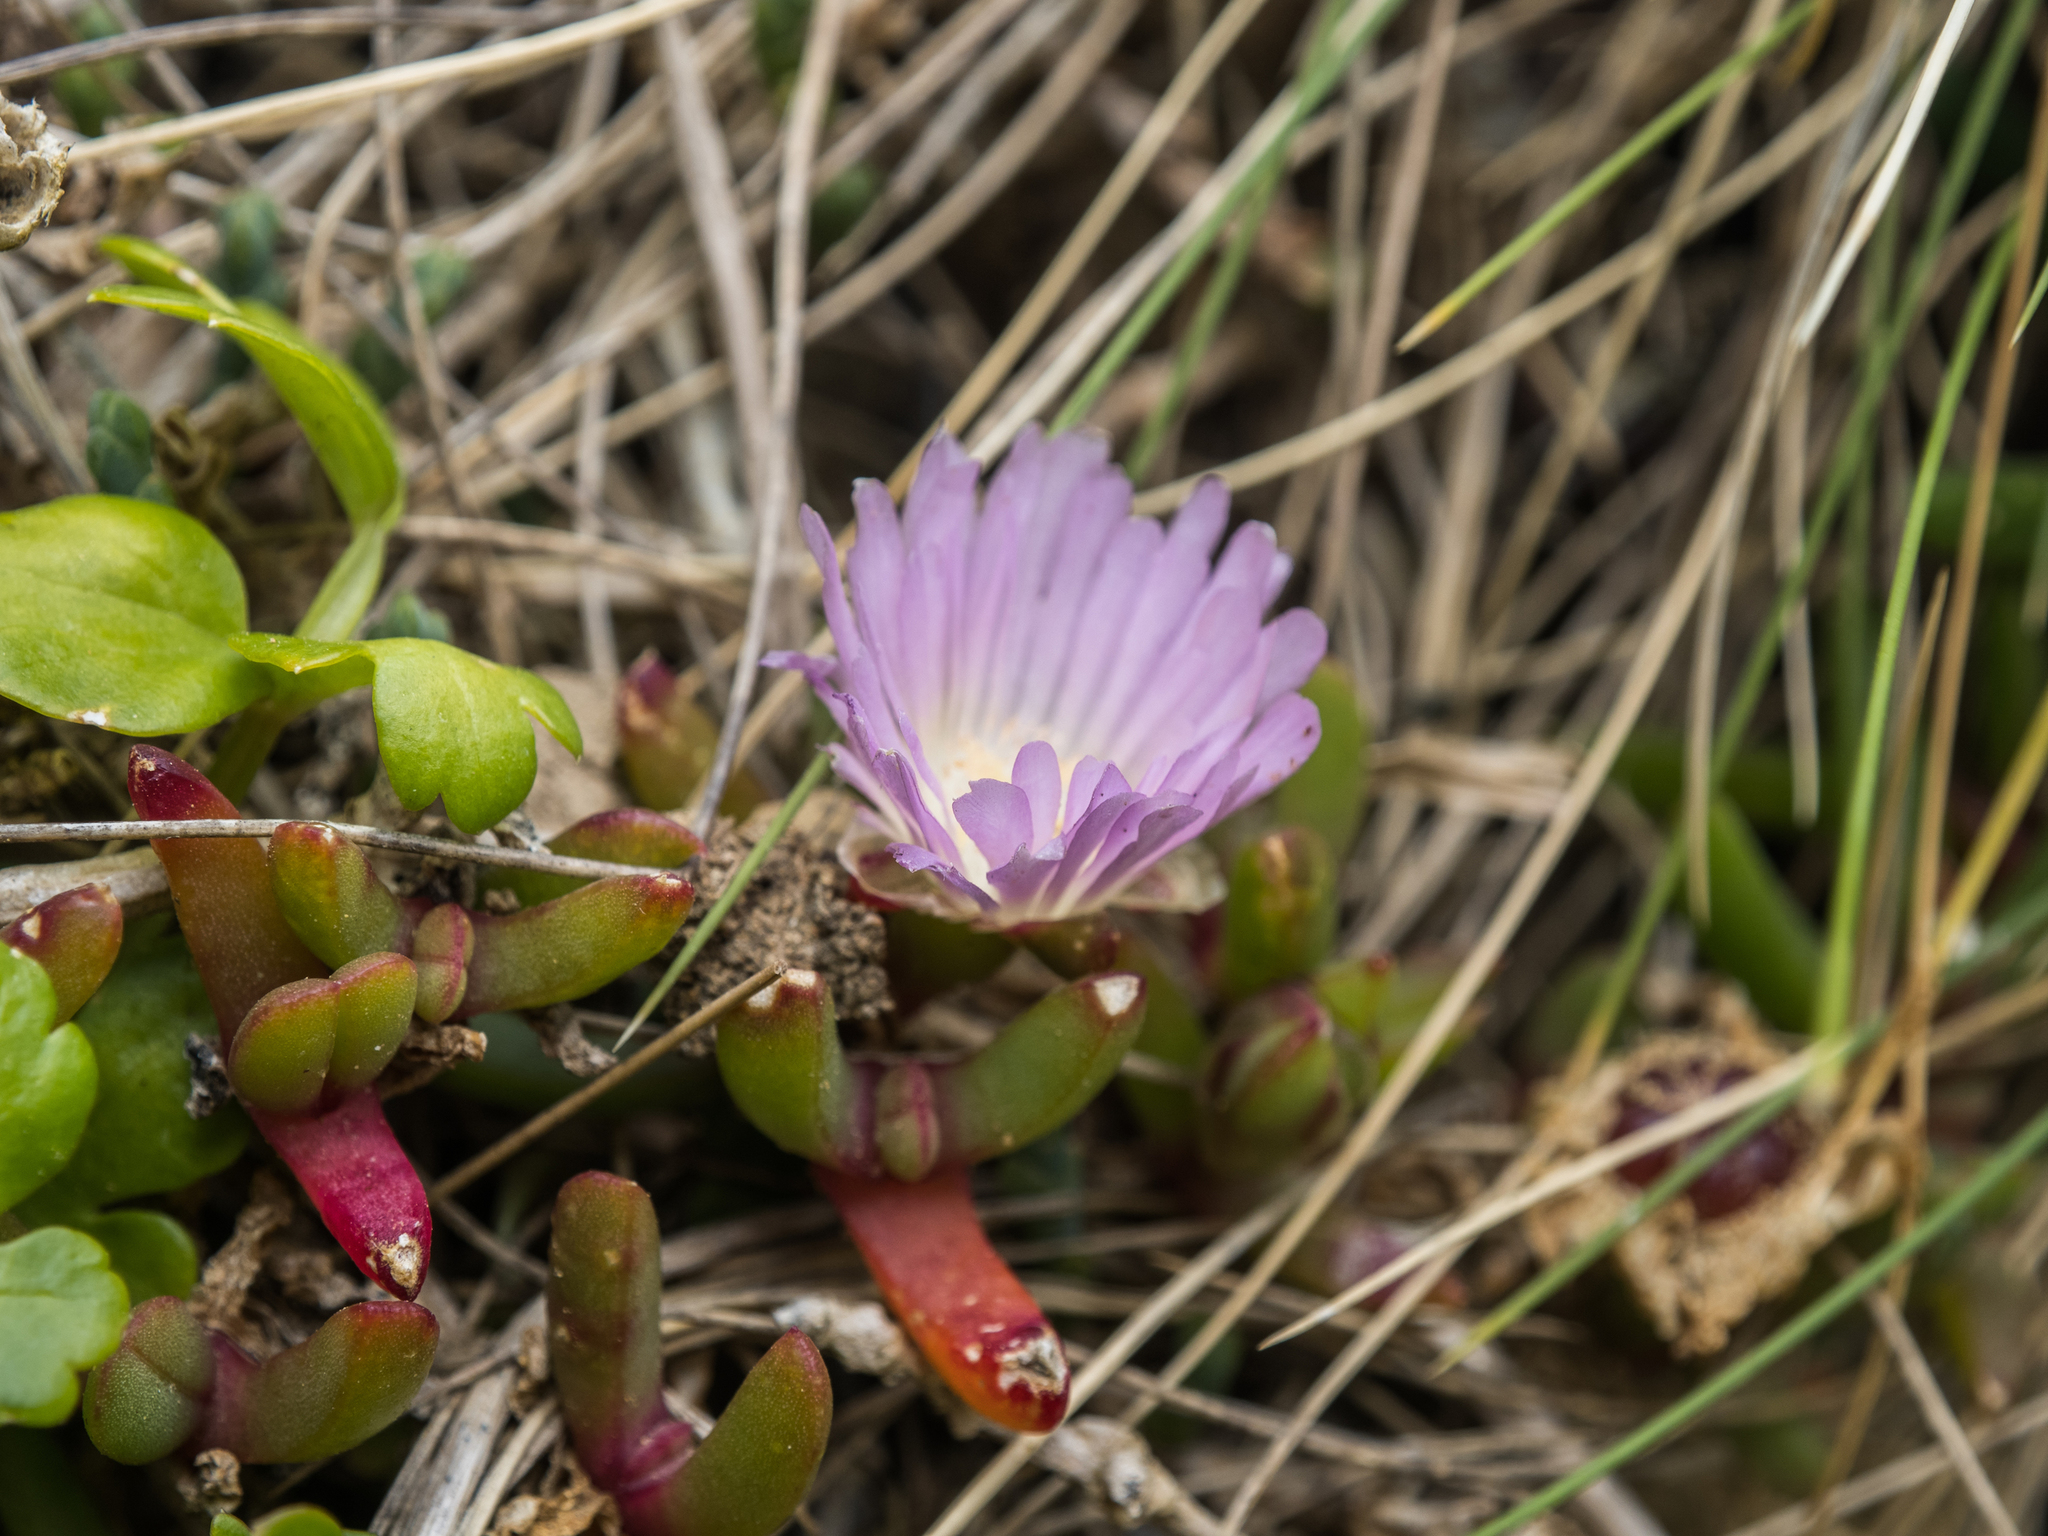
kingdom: Plantae
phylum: Tracheophyta
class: Magnoliopsida
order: Caryophyllales
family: Aizoaceae
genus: Disphyma
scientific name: Disphyma australe
